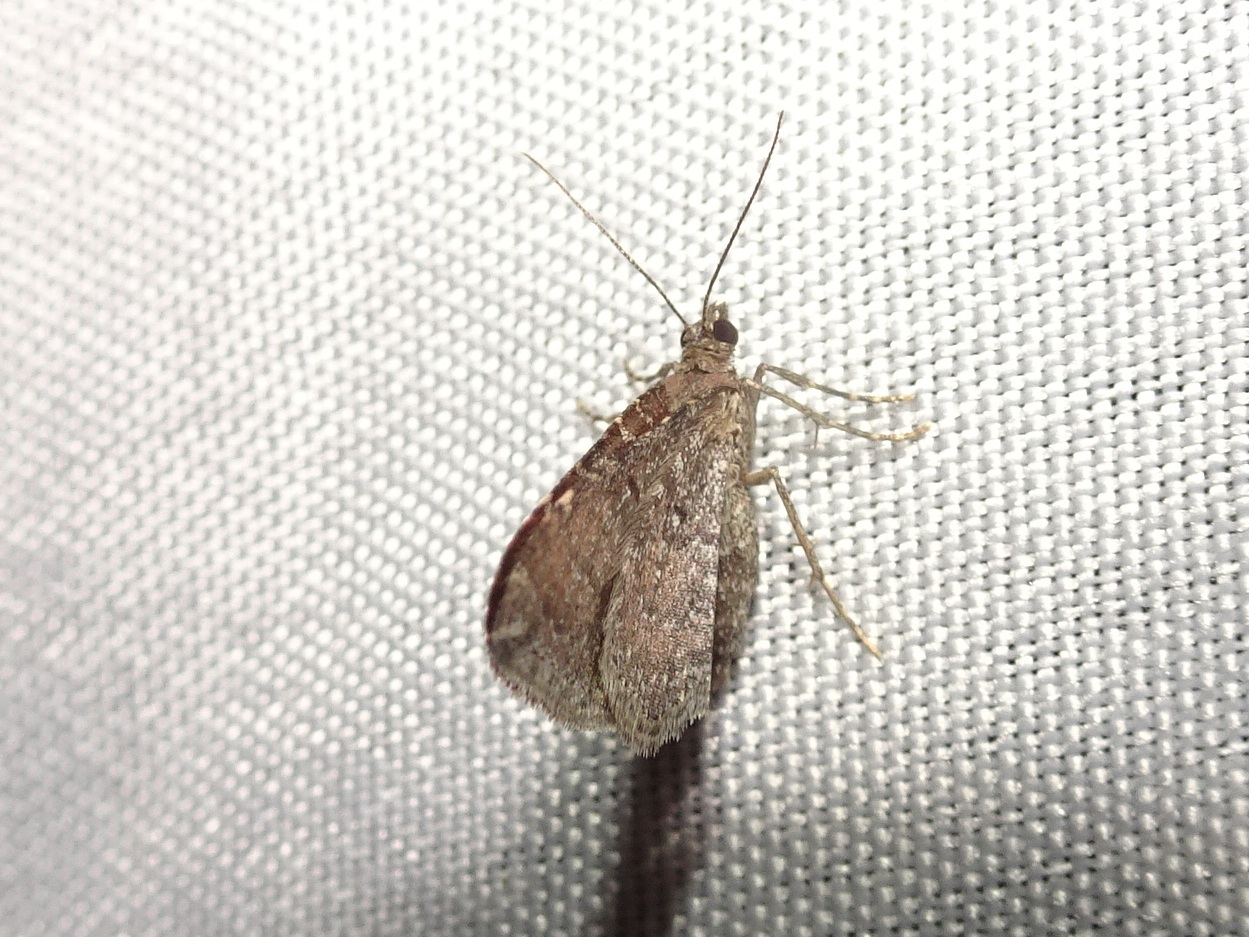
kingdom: Animalia
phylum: Arthropoda
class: Insecta
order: Lepidoptera
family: Geometridae
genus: Orthonama
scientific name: Orthonama obstipata
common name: The gem
